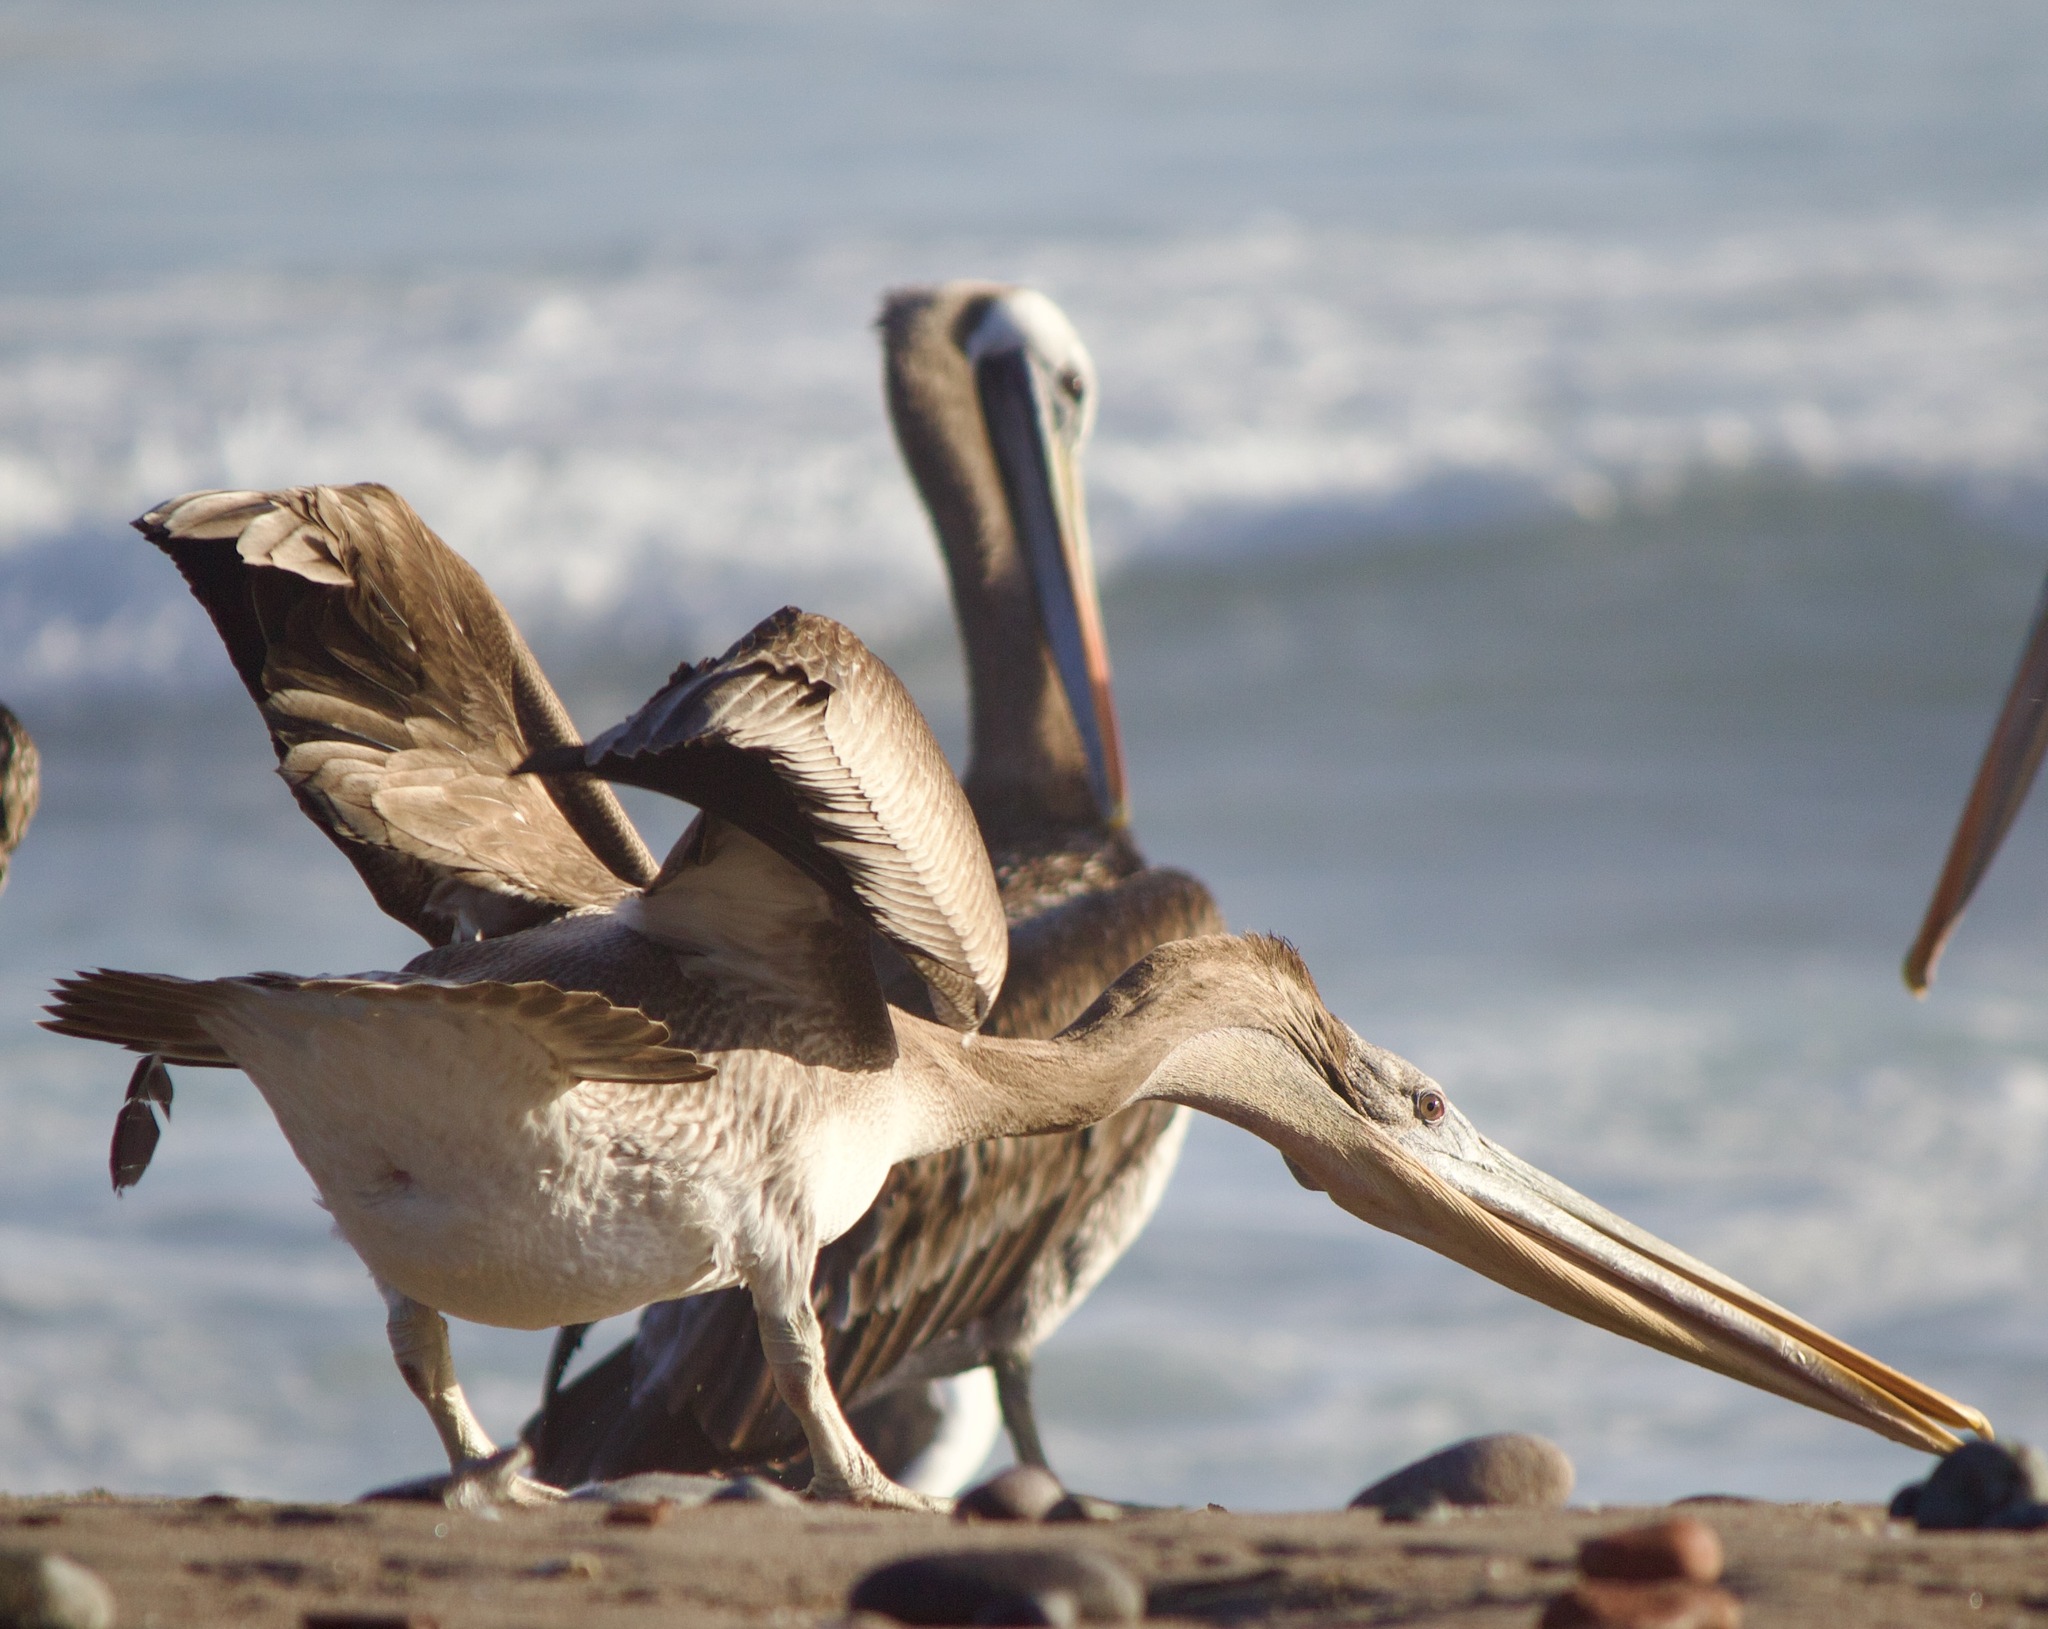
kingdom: Animalia
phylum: Chordata
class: Aves
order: Pelecaniformes
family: Pelecanidae
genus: Pelecanus
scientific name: Pelecanus thagus
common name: Peruvian pelican
